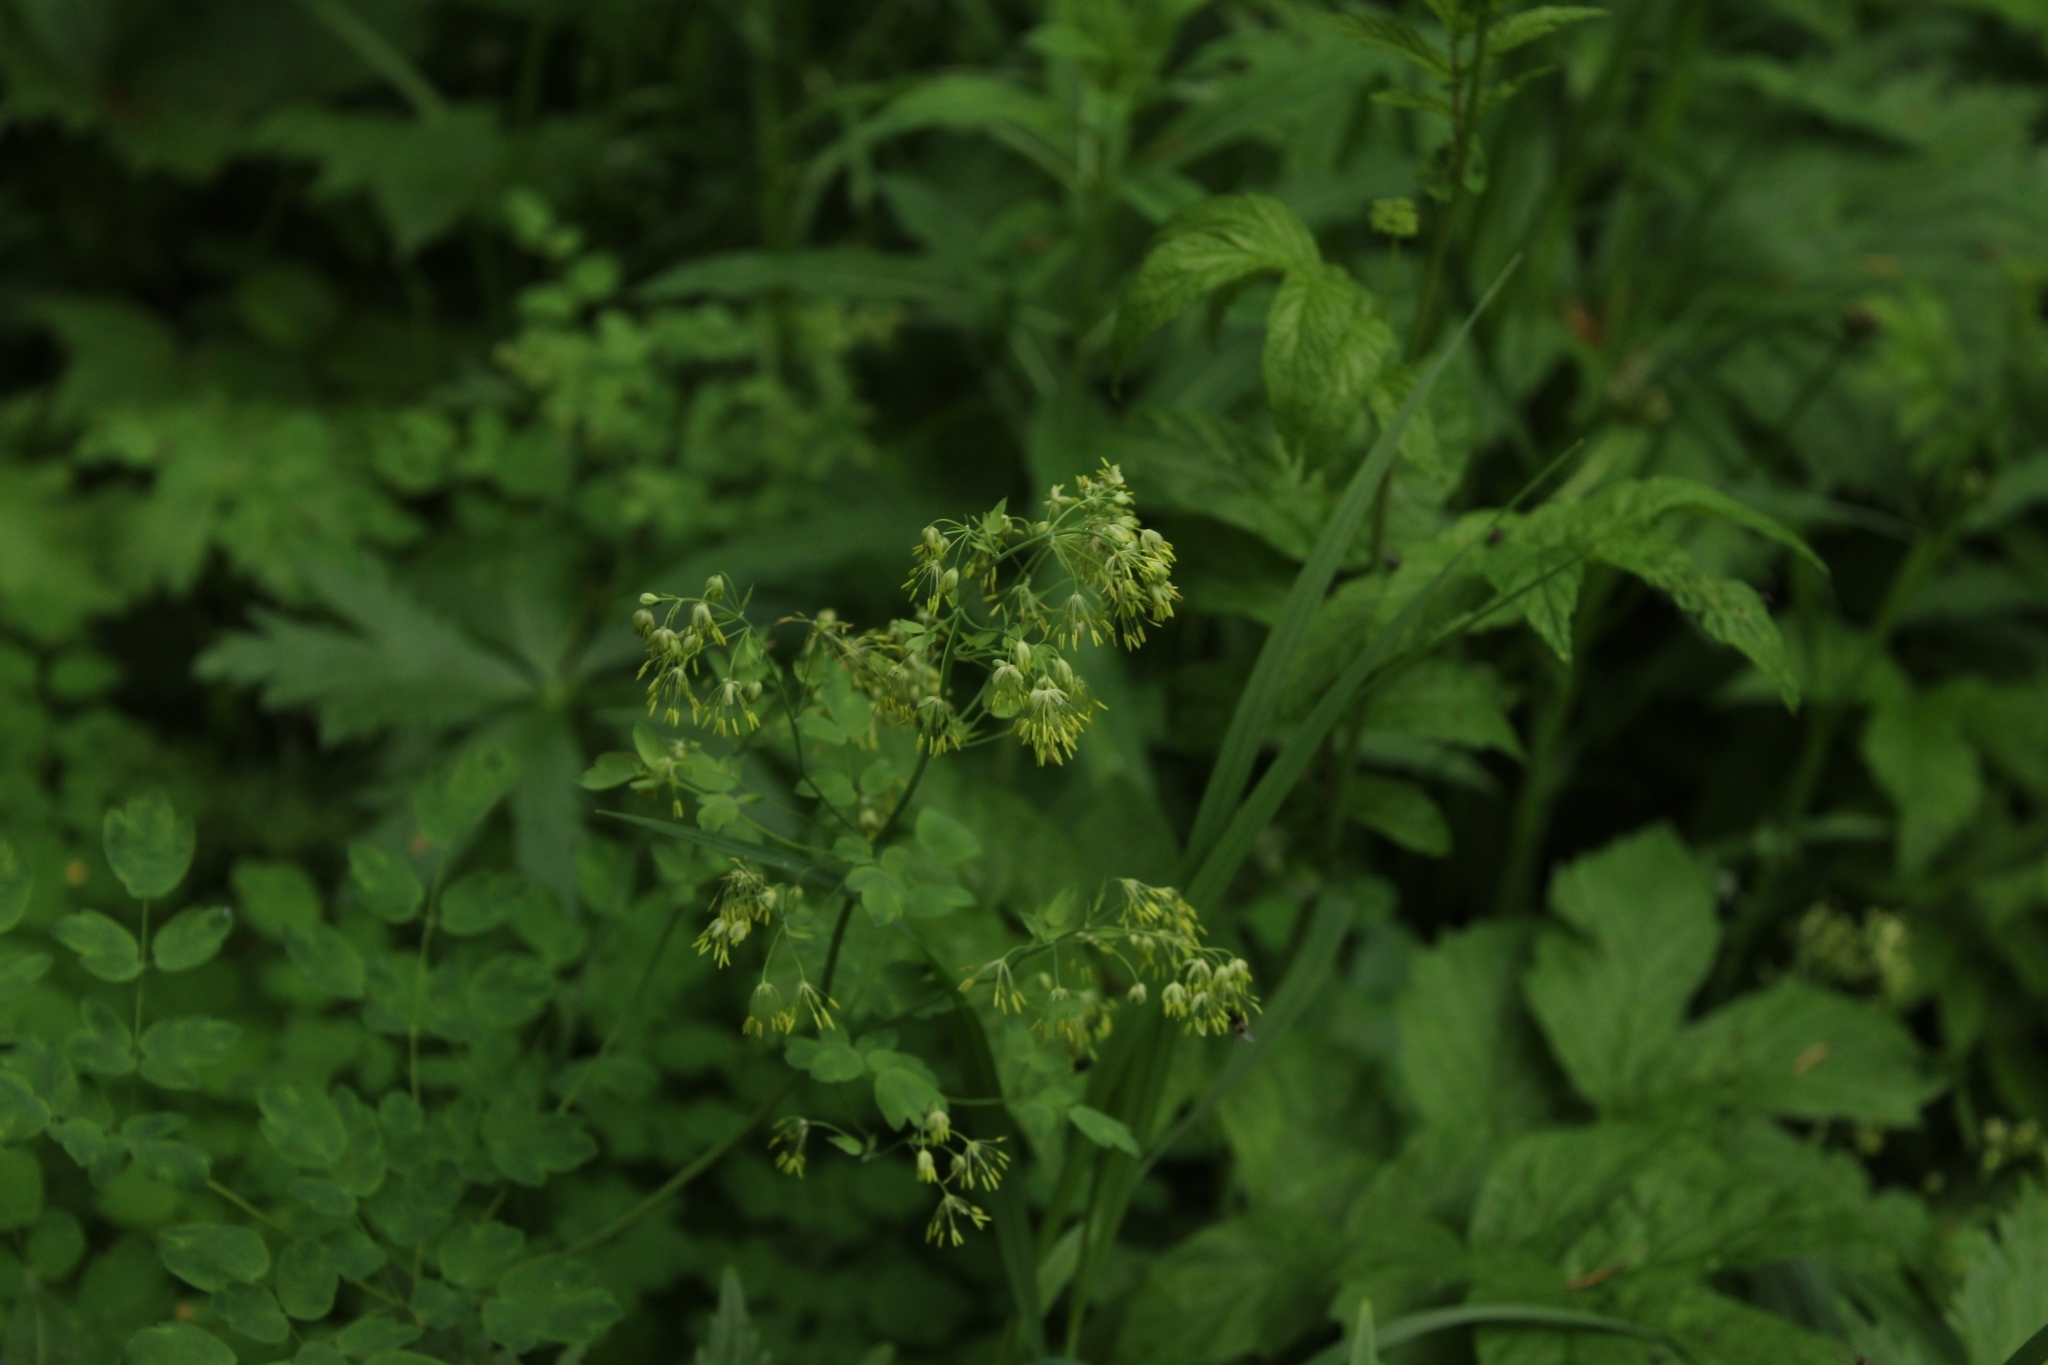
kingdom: Plantae
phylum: Tracheophyta
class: Magnoliopsida
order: Ranunculales
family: Ranunculaceae
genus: Thalictrum
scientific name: Thalictrum minus
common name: Lesser meadow-rue
